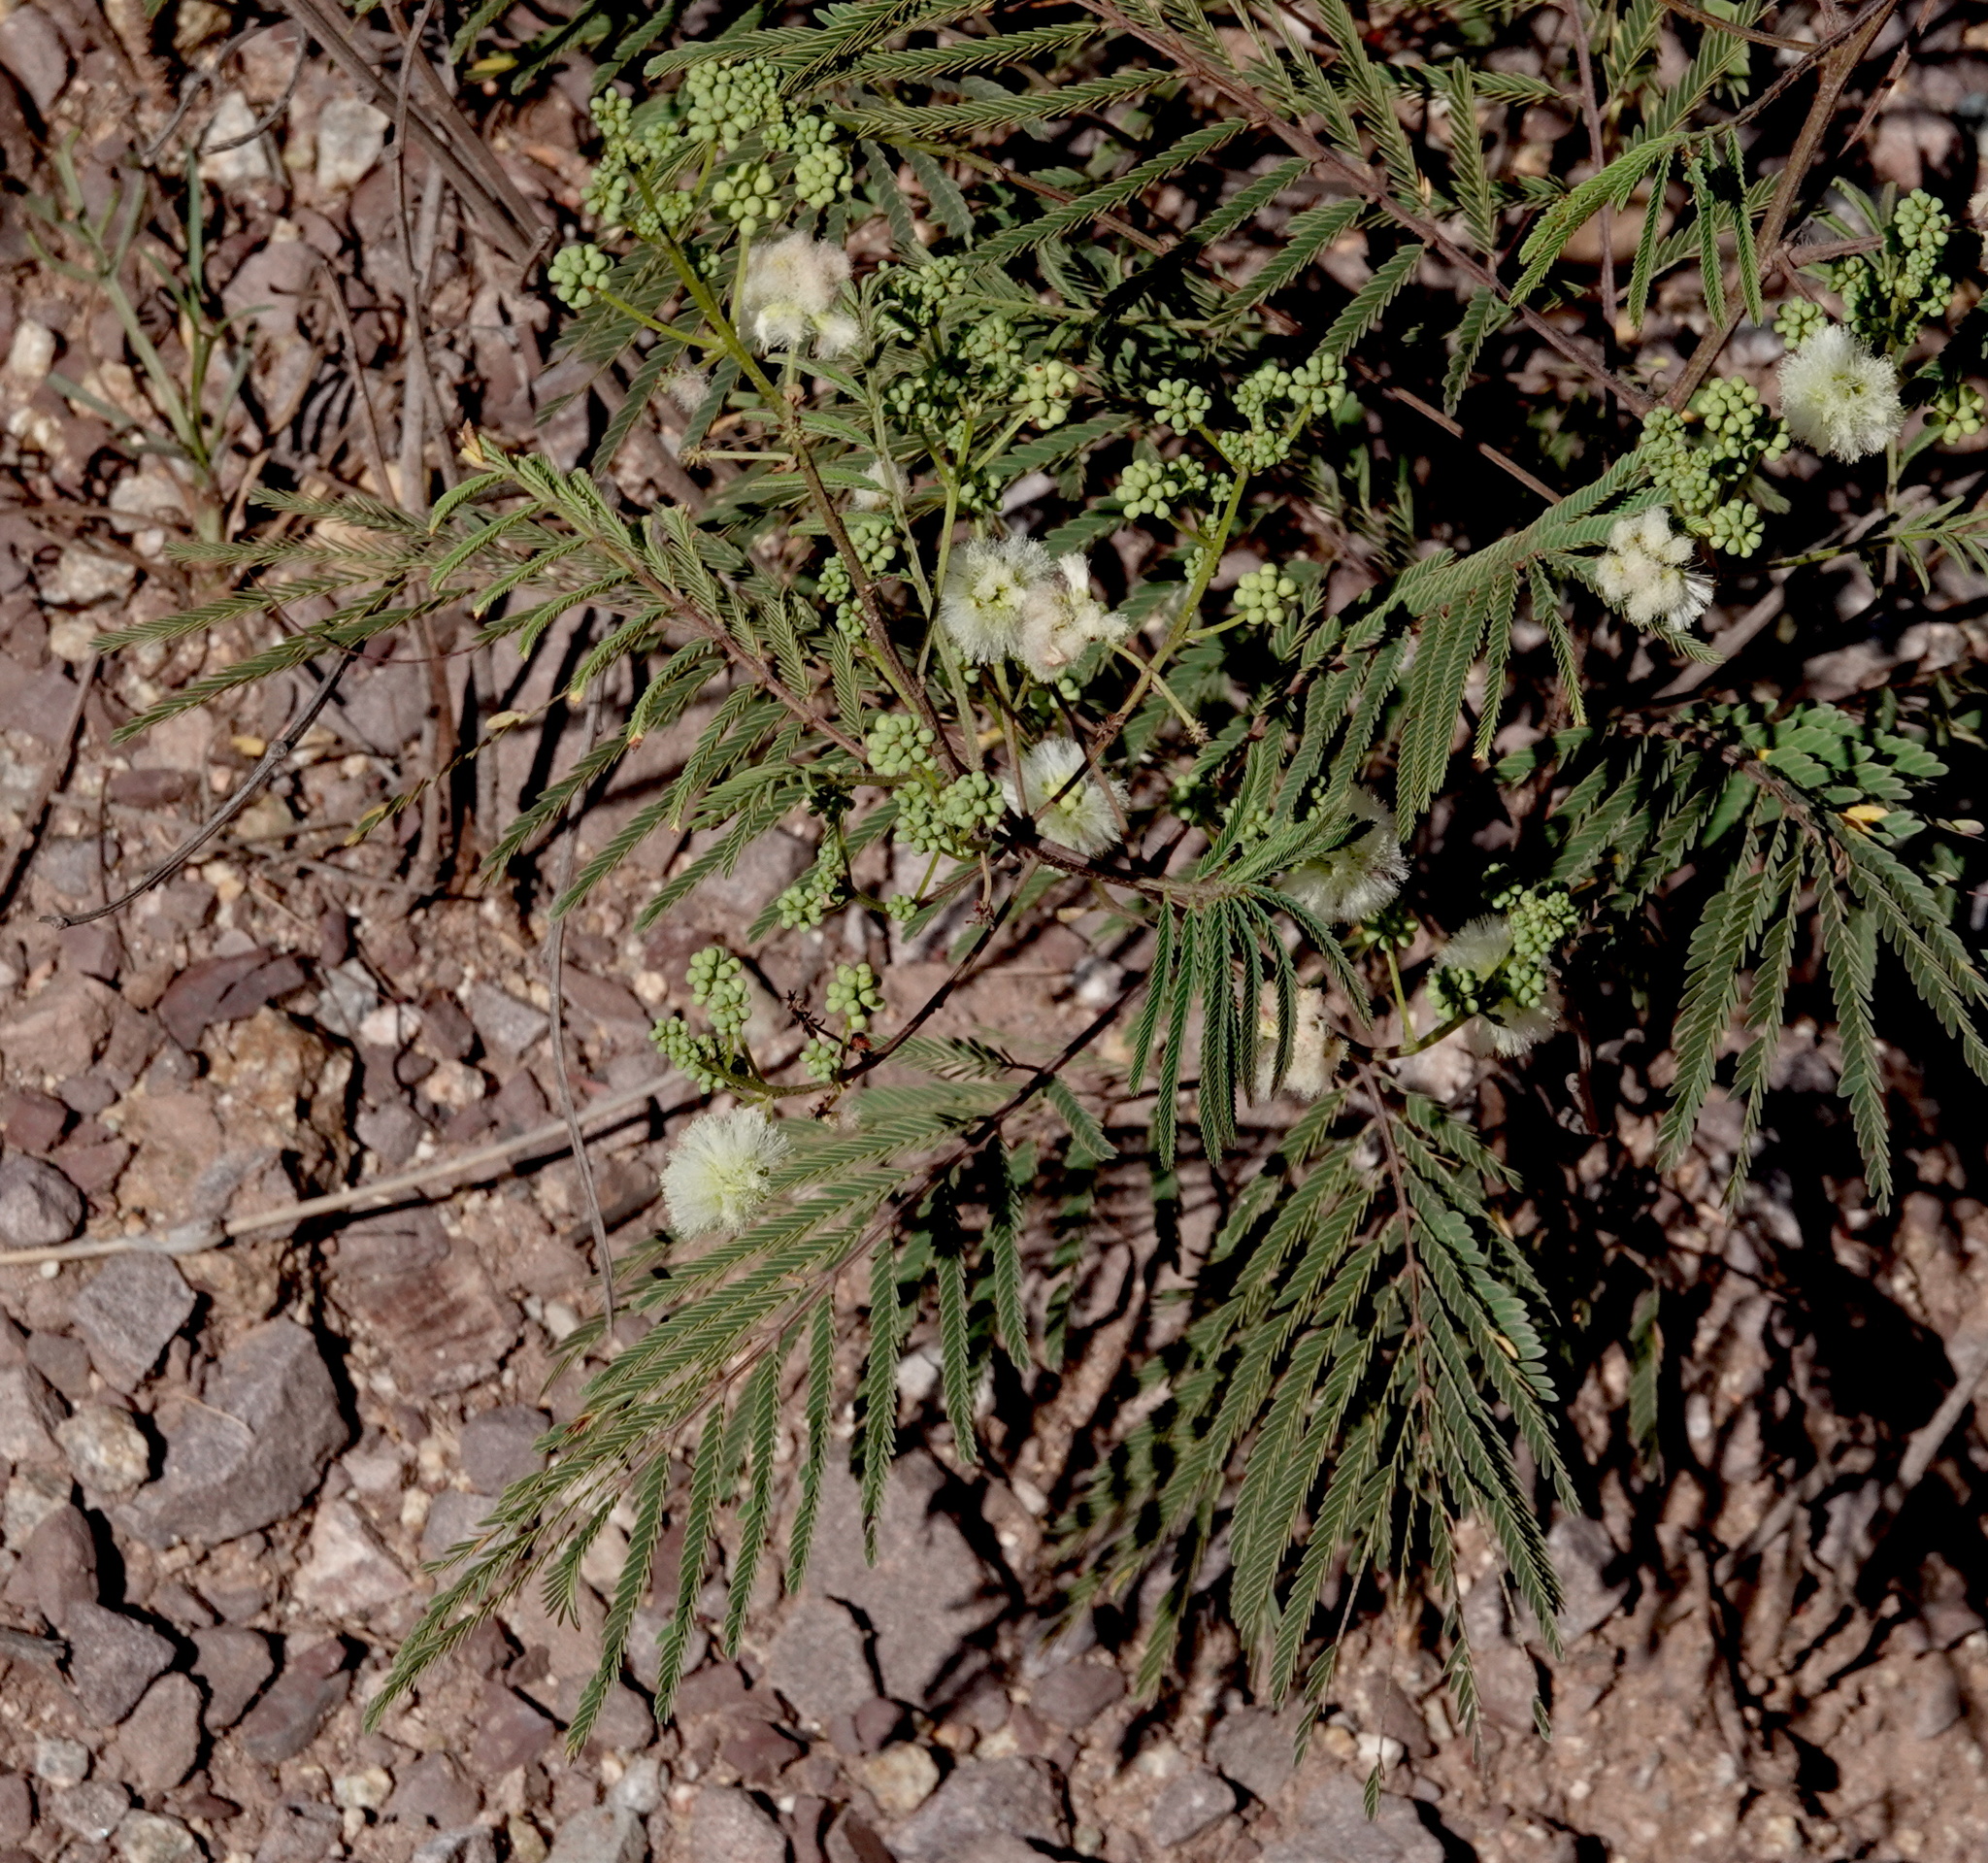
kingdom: Plantae
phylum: Tracheophyta
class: Magnoliopsida
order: Fabales
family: Fabaceae
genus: Acaciella
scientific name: Acaciella angustissima
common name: Prairie acacia
